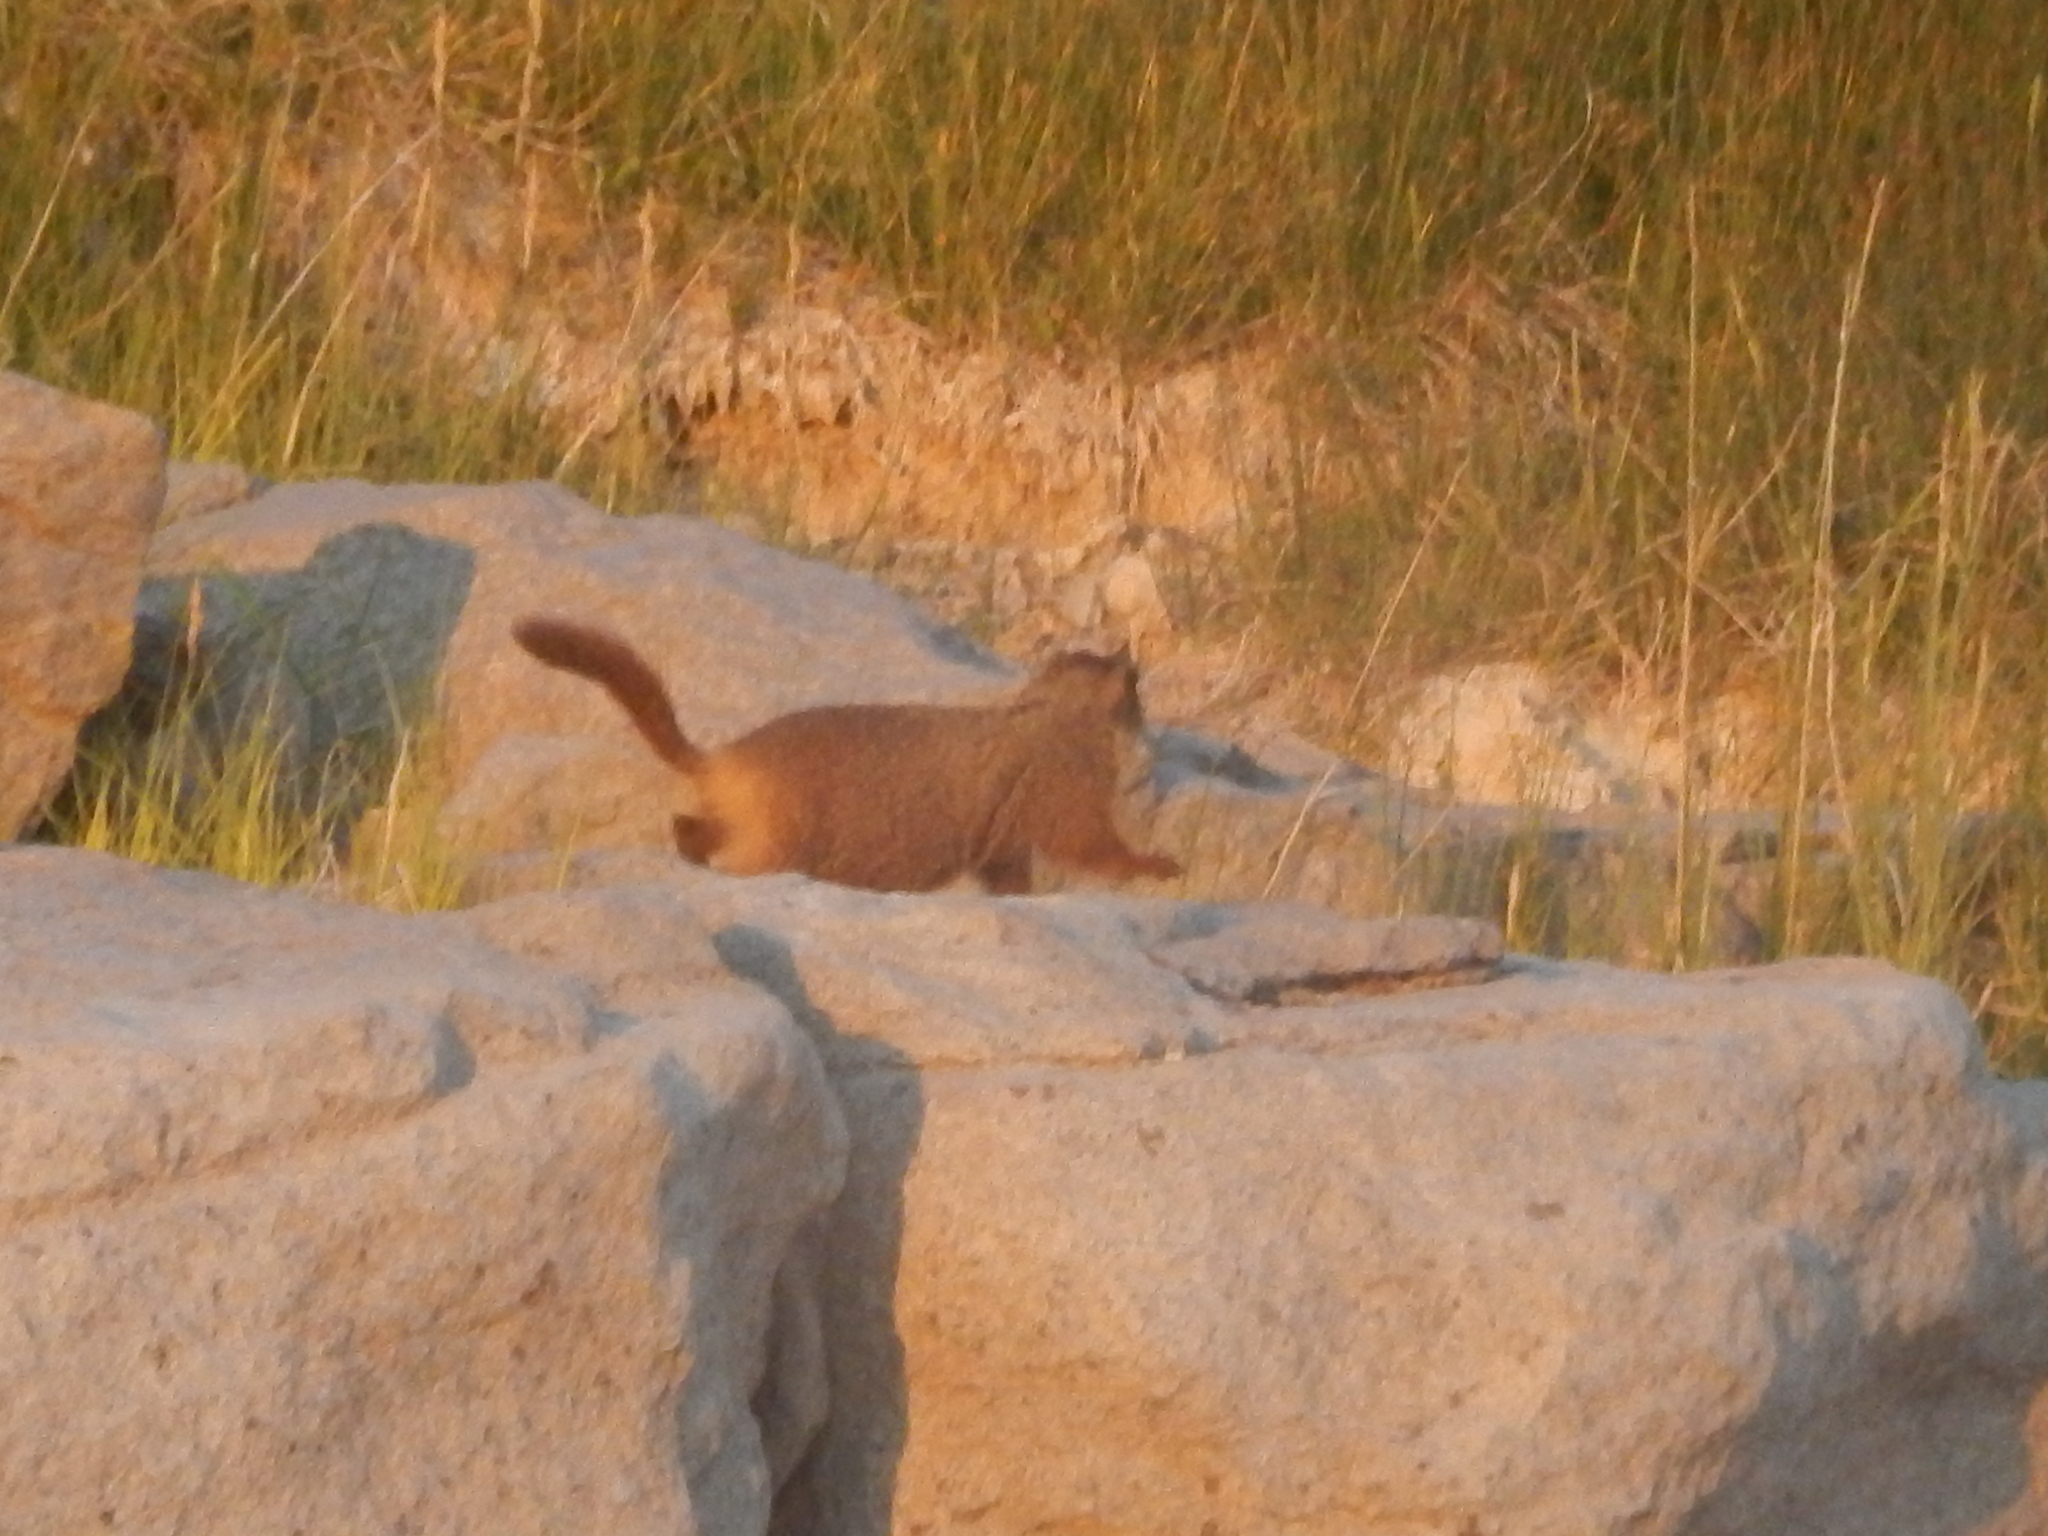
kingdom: Animalia
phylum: Chordata
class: Mammalia
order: Rodentia
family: Sciuridae
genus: Marmota
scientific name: Marmota flaviventris
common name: Yellow-bellied marmot
